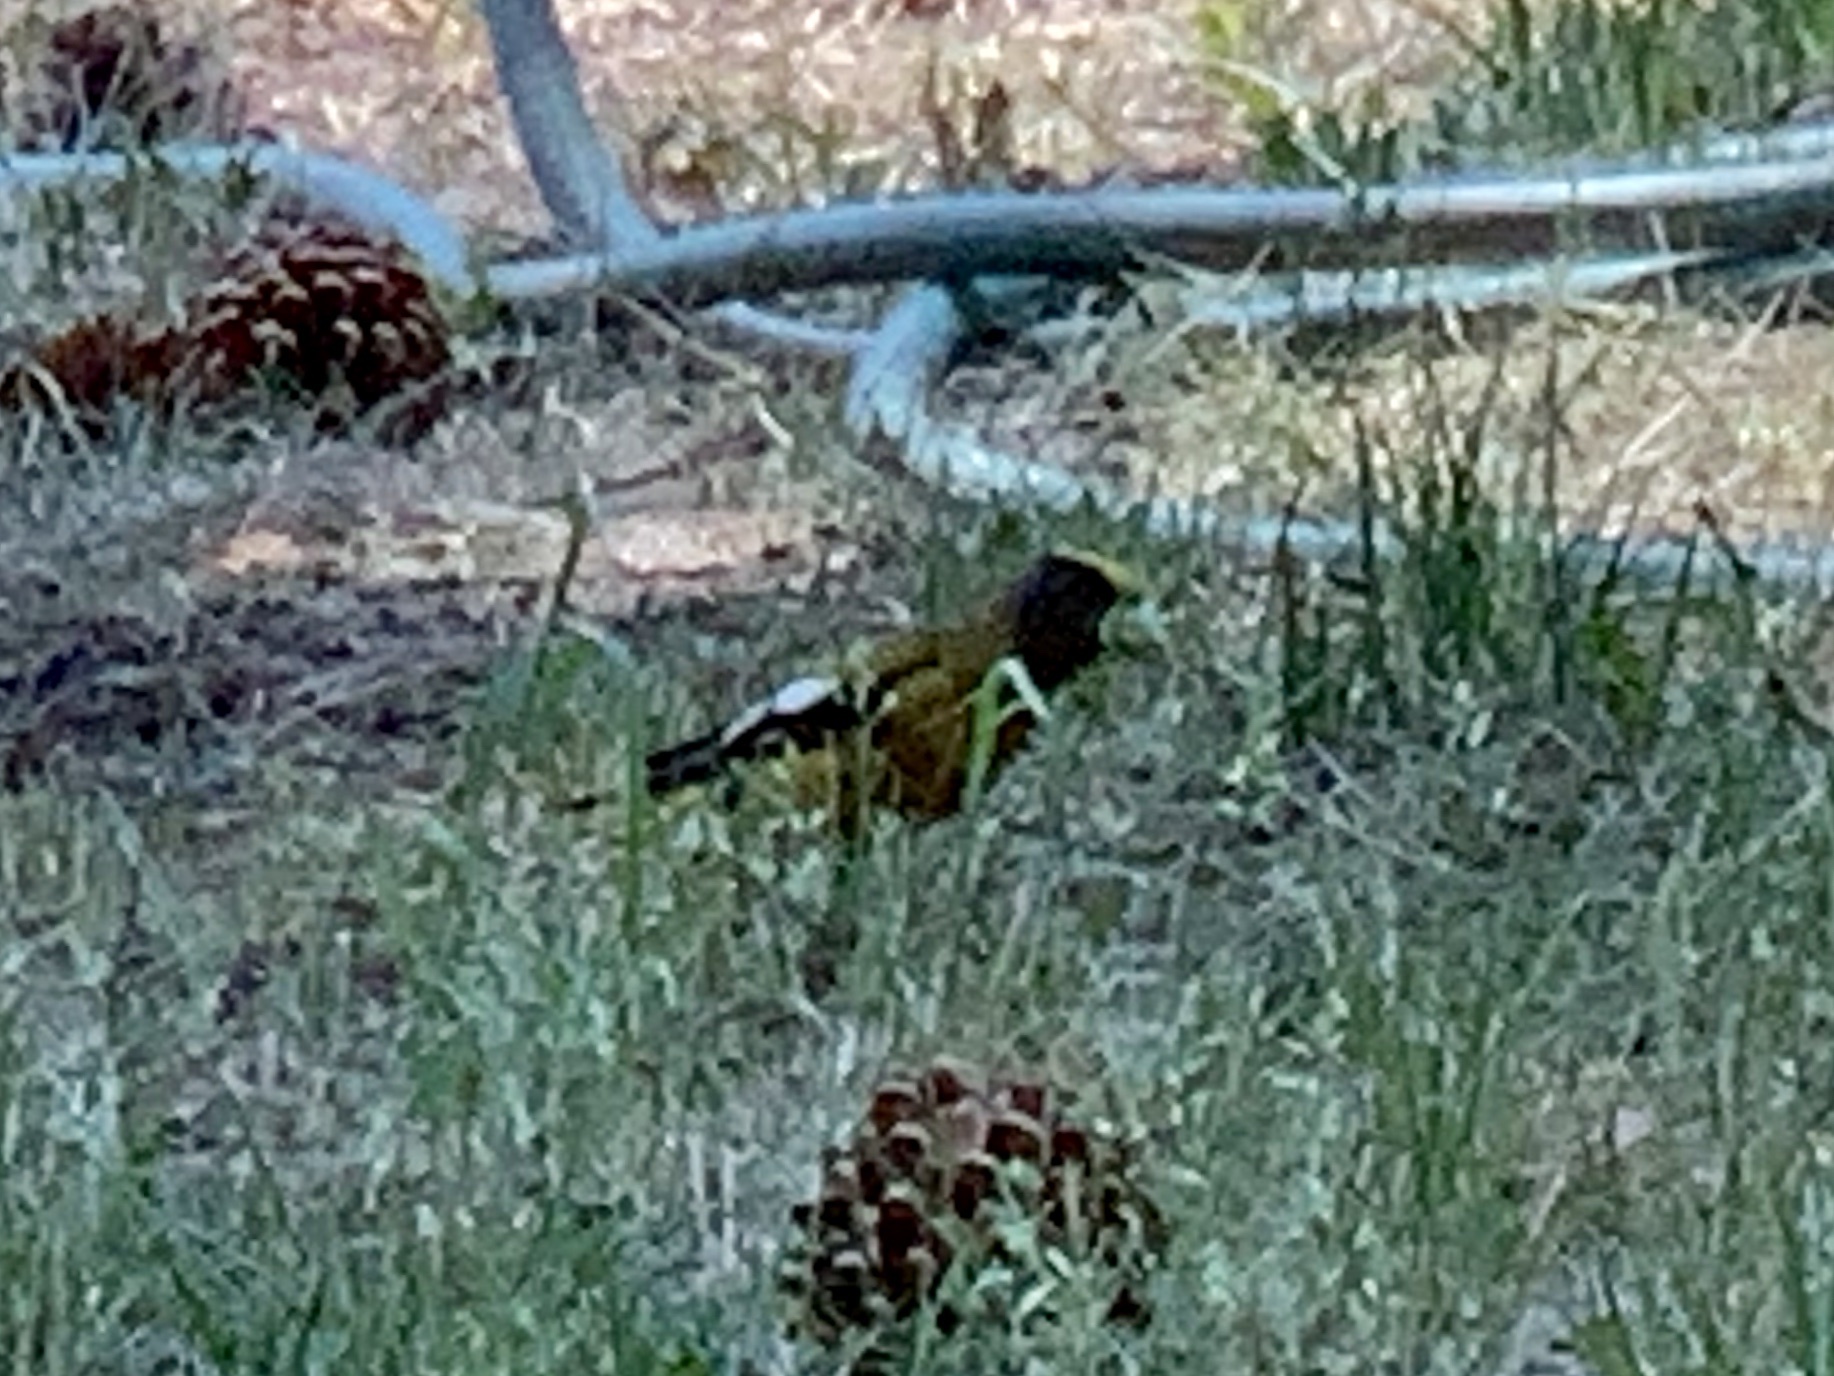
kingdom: Animalia
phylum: Chordata
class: Aves
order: Passeriformes
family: Fringillidae
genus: Hesperiphona
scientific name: Hesperiphona vespertina
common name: Evening grosbeak
